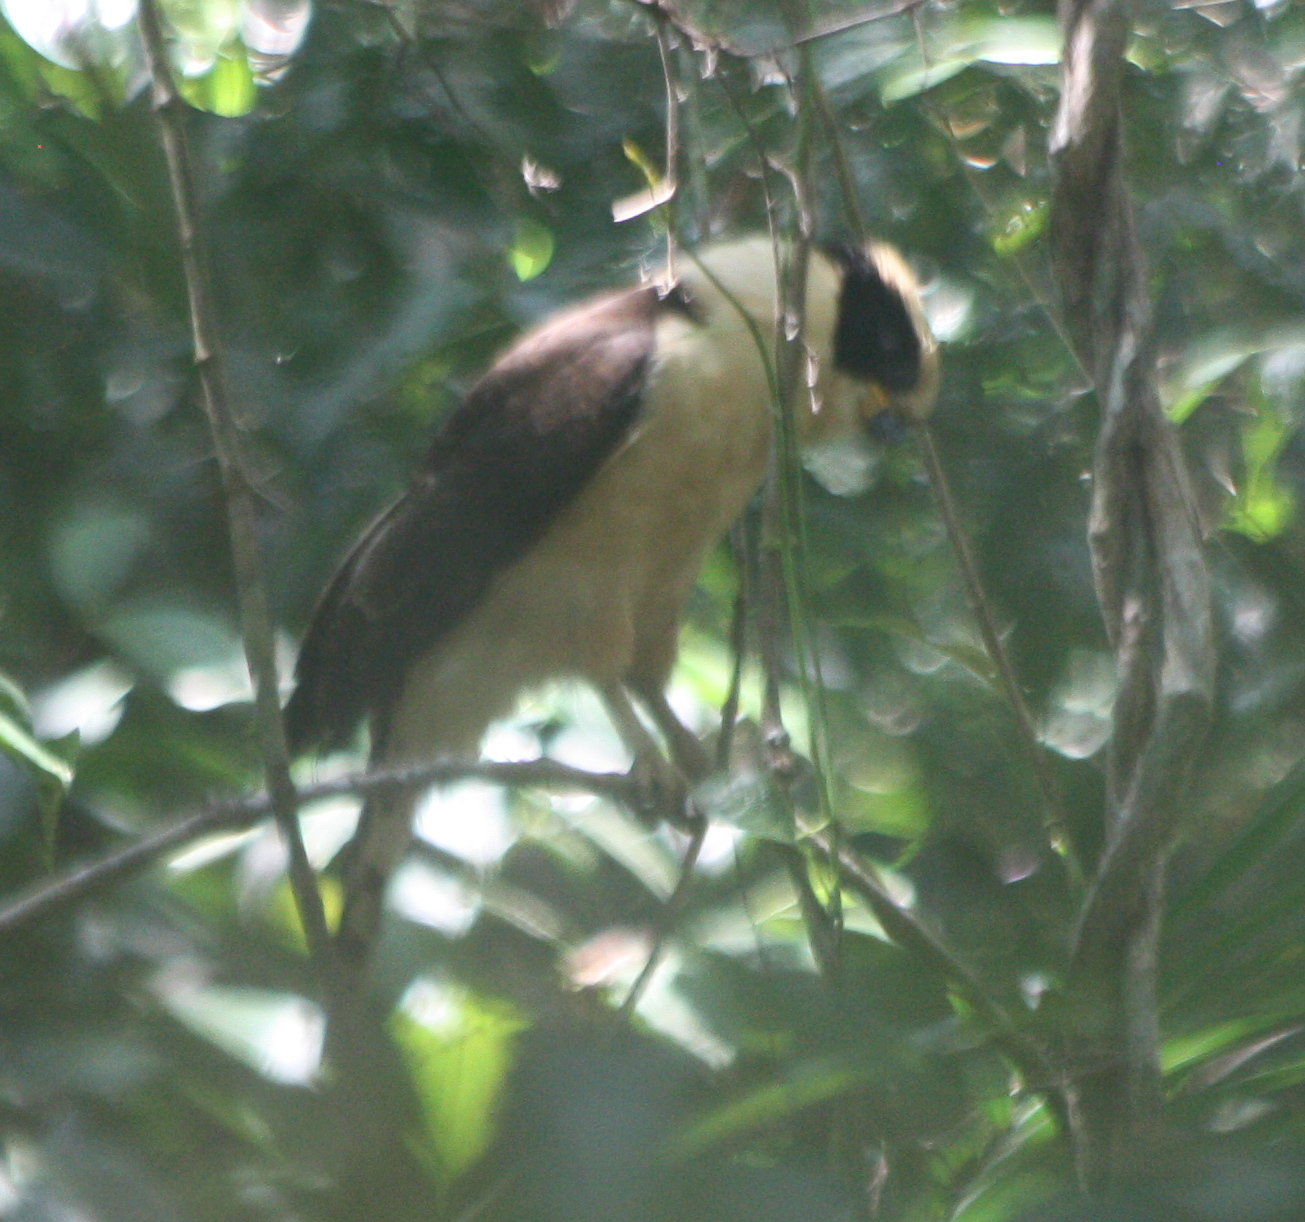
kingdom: Animalia
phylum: Chordata
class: Aves
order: Falconiformes
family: Falconidae
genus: Herpetotheres
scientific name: Herpetotheres cachinnans
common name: Laughing falcon
